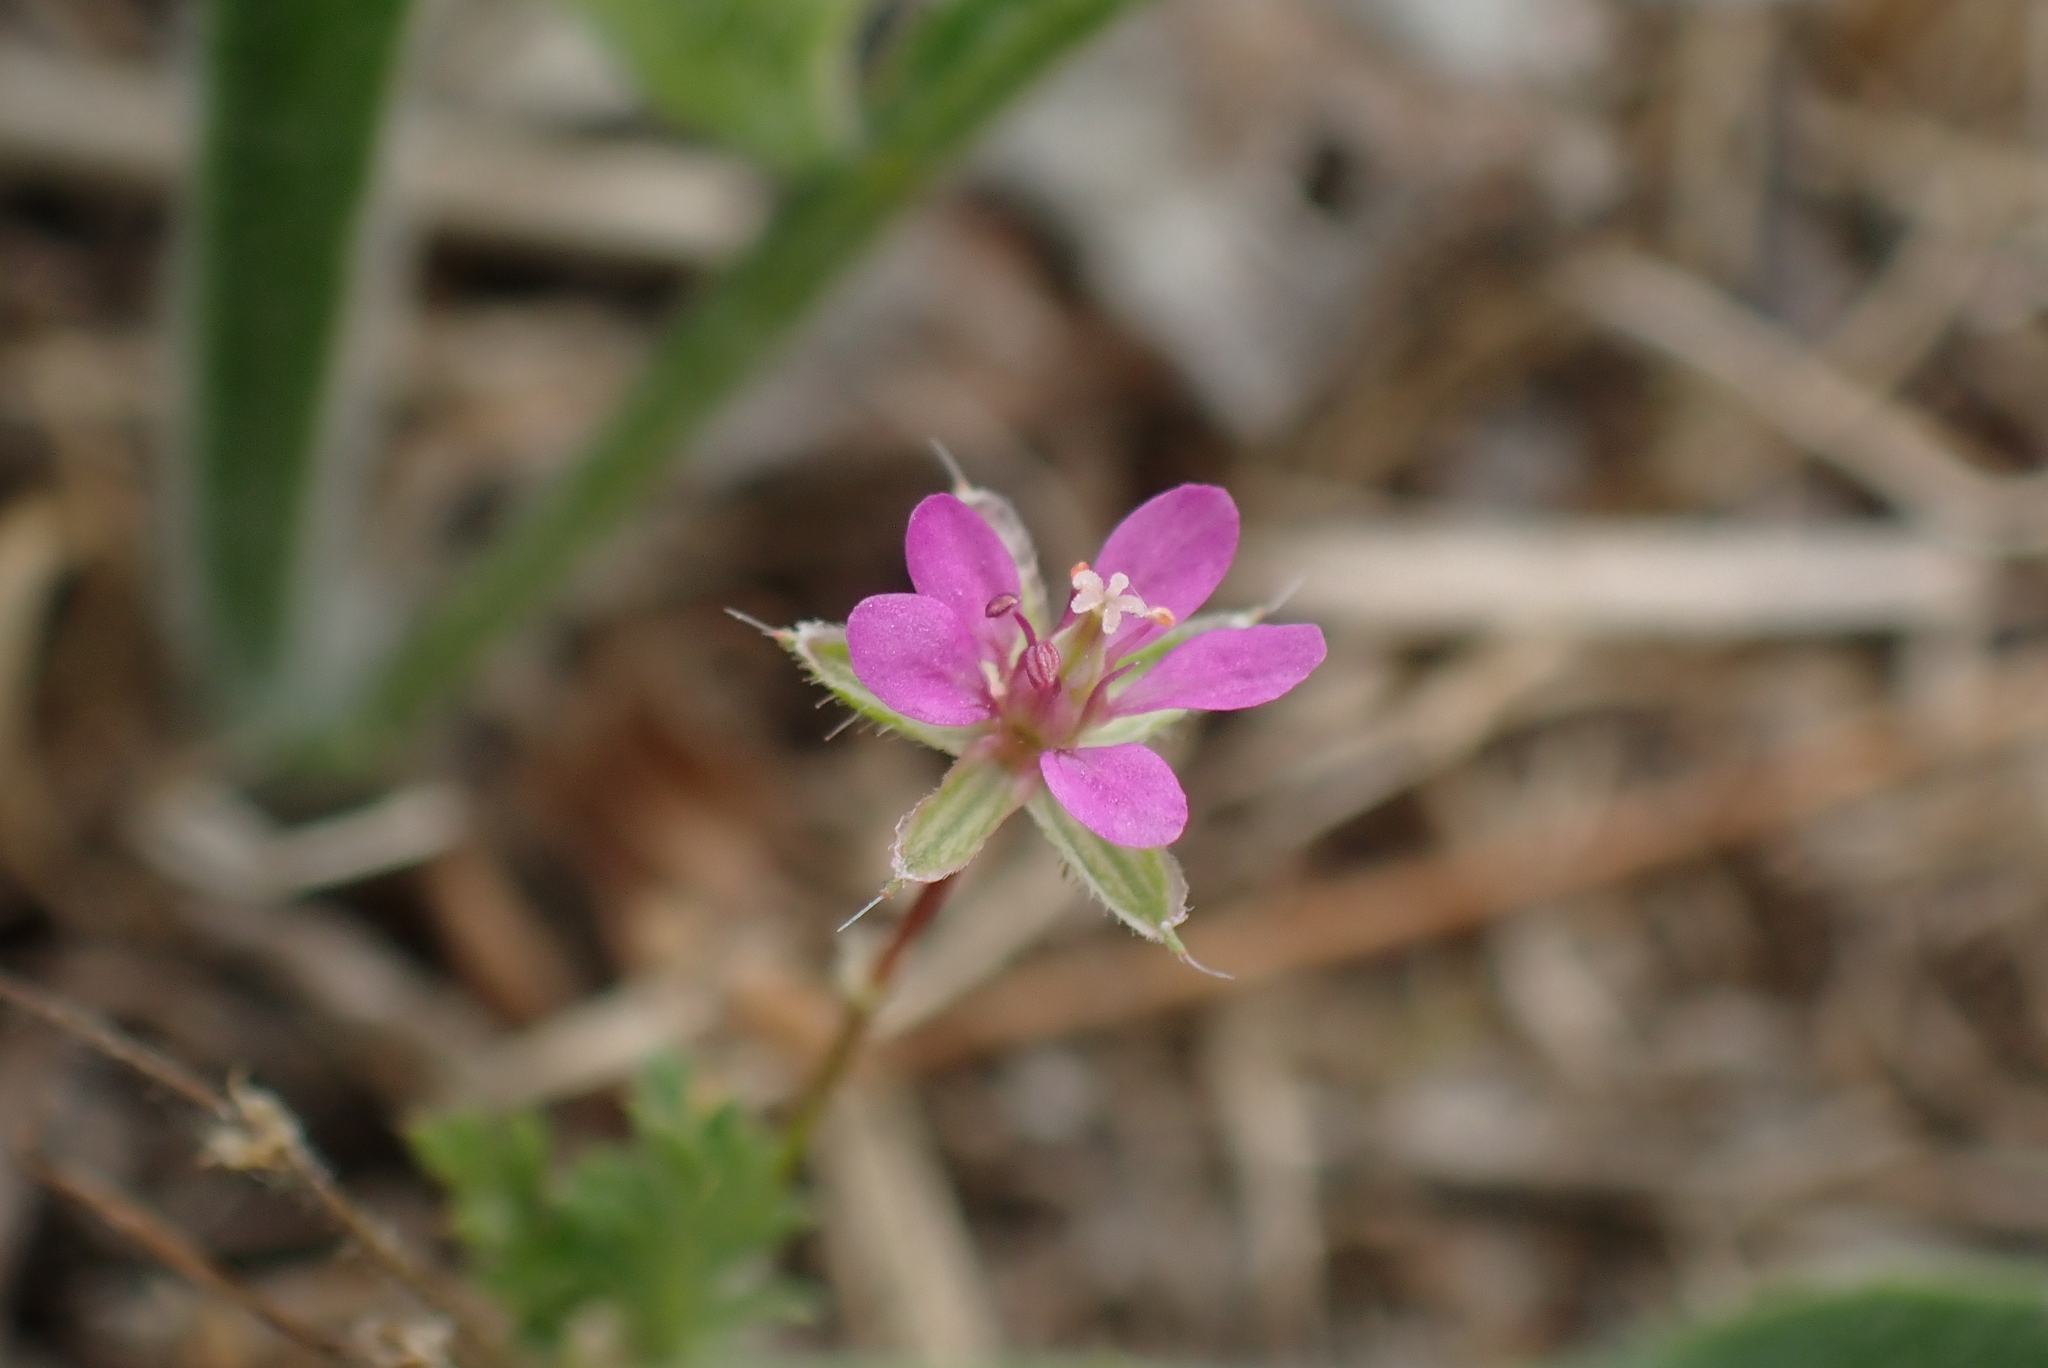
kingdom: Plantae
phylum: Tracheophyta
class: Magnoliopsida
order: Geraniales
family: Geraniaceae
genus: Erodium
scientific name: Erodium cicutarium
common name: Common stork's-bill
